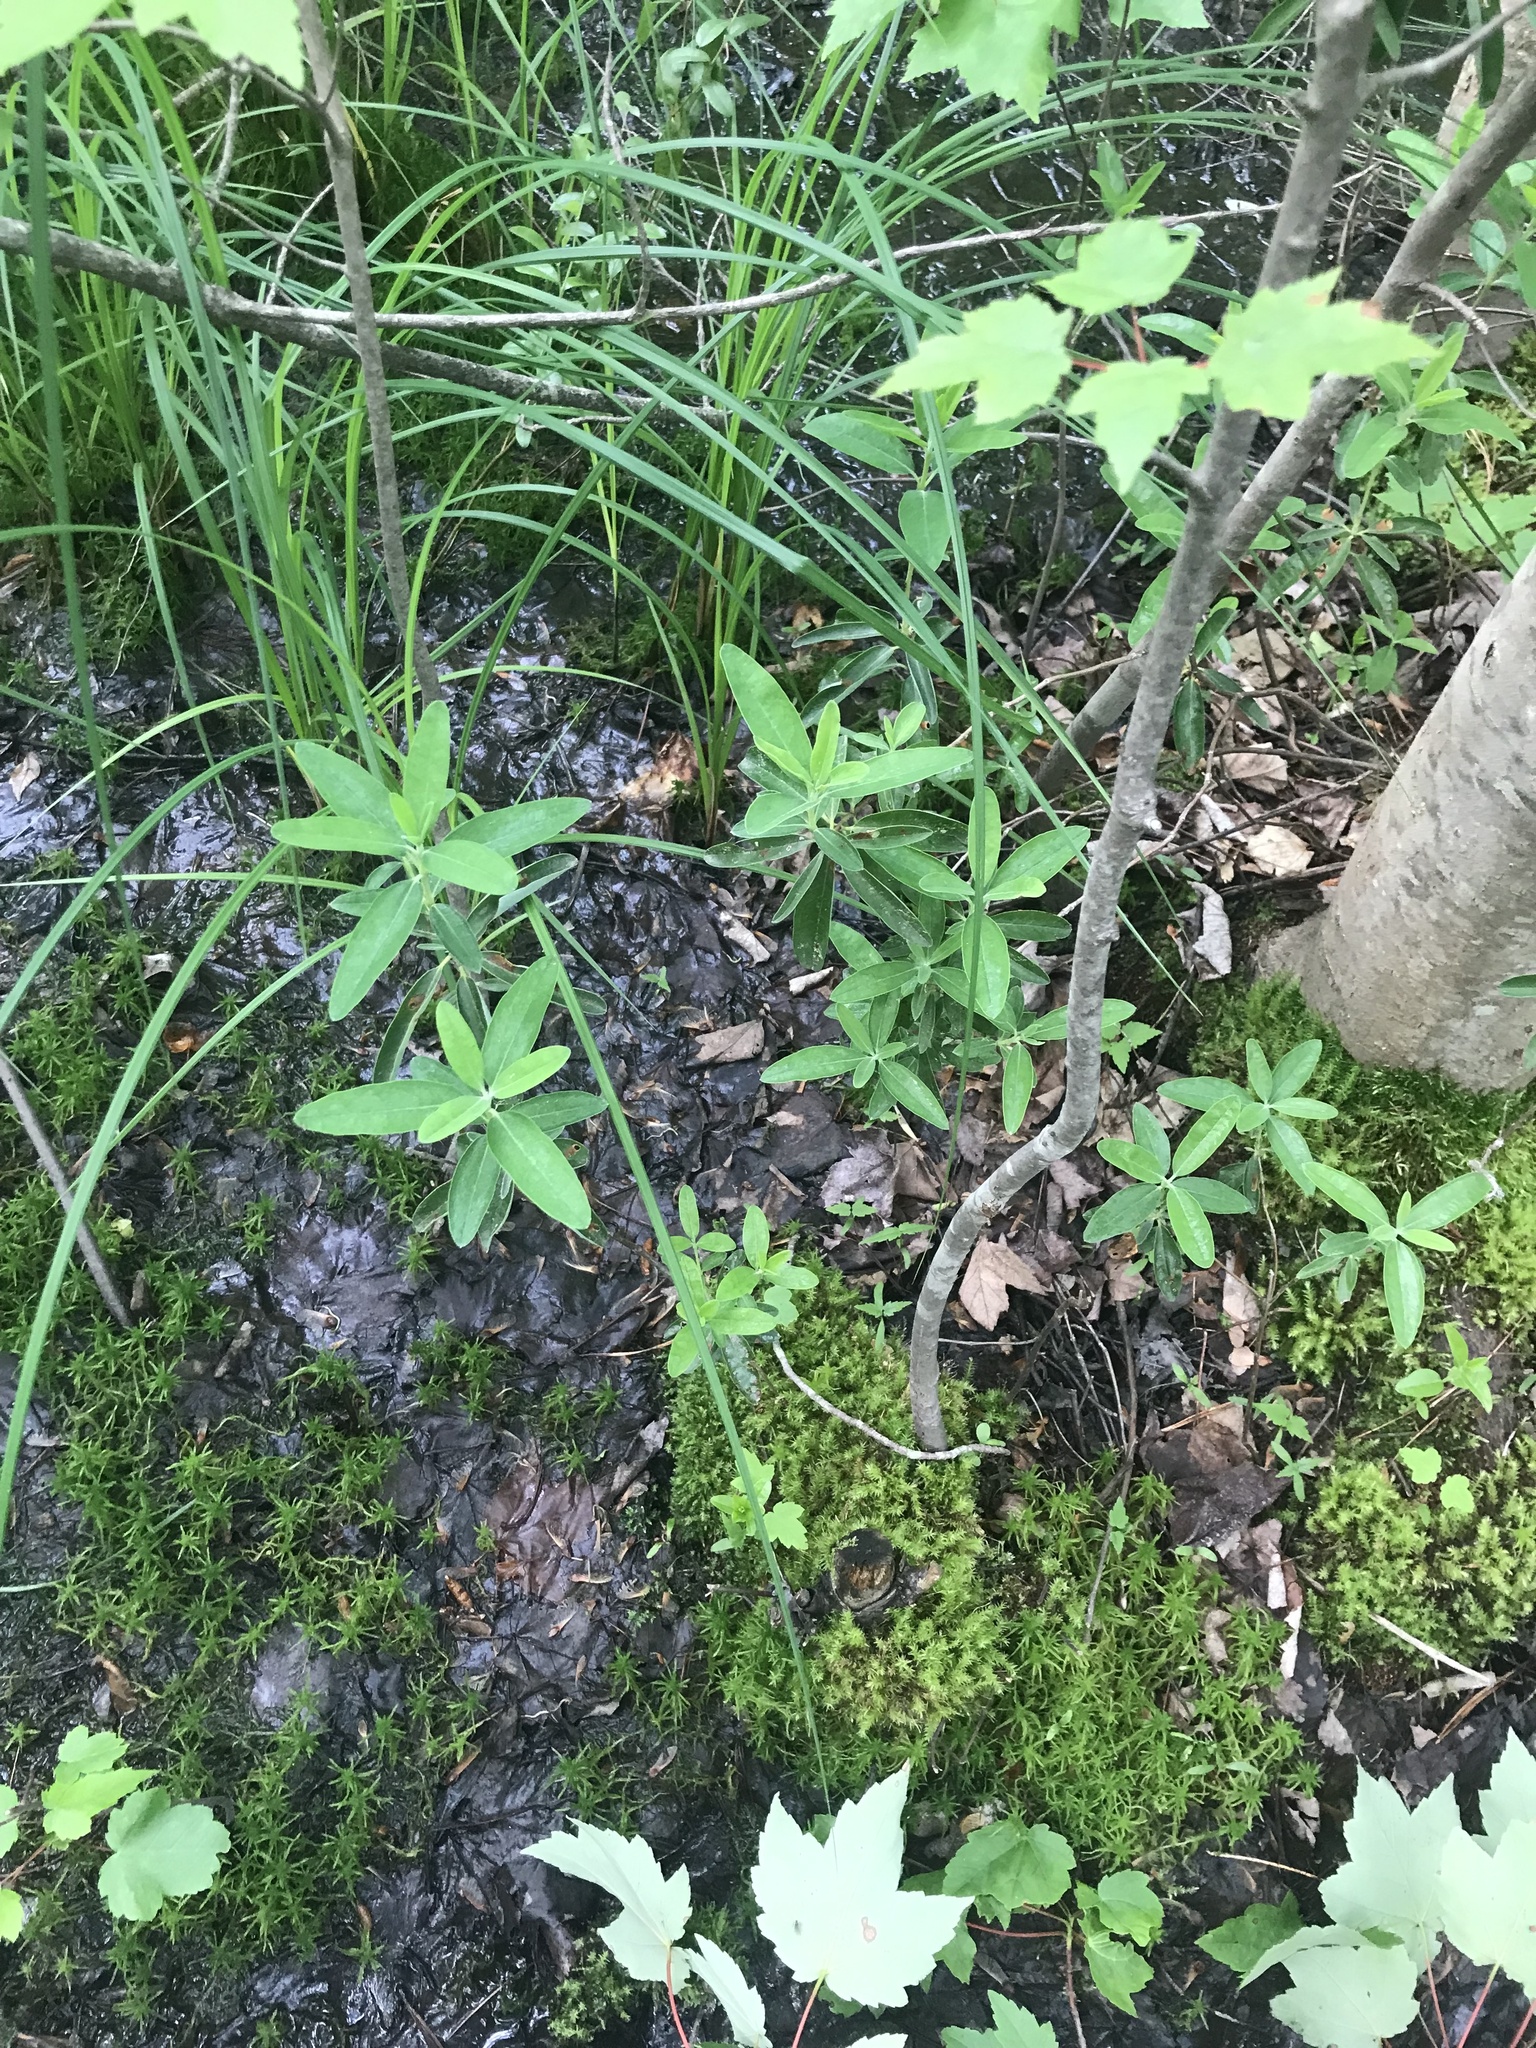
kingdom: Plantae
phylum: Tracheophyta
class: Magnoliopsida
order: Ericales
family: Ericaceae
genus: Kalmia
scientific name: Kalmia angustifolia
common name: Sheep-laurel
